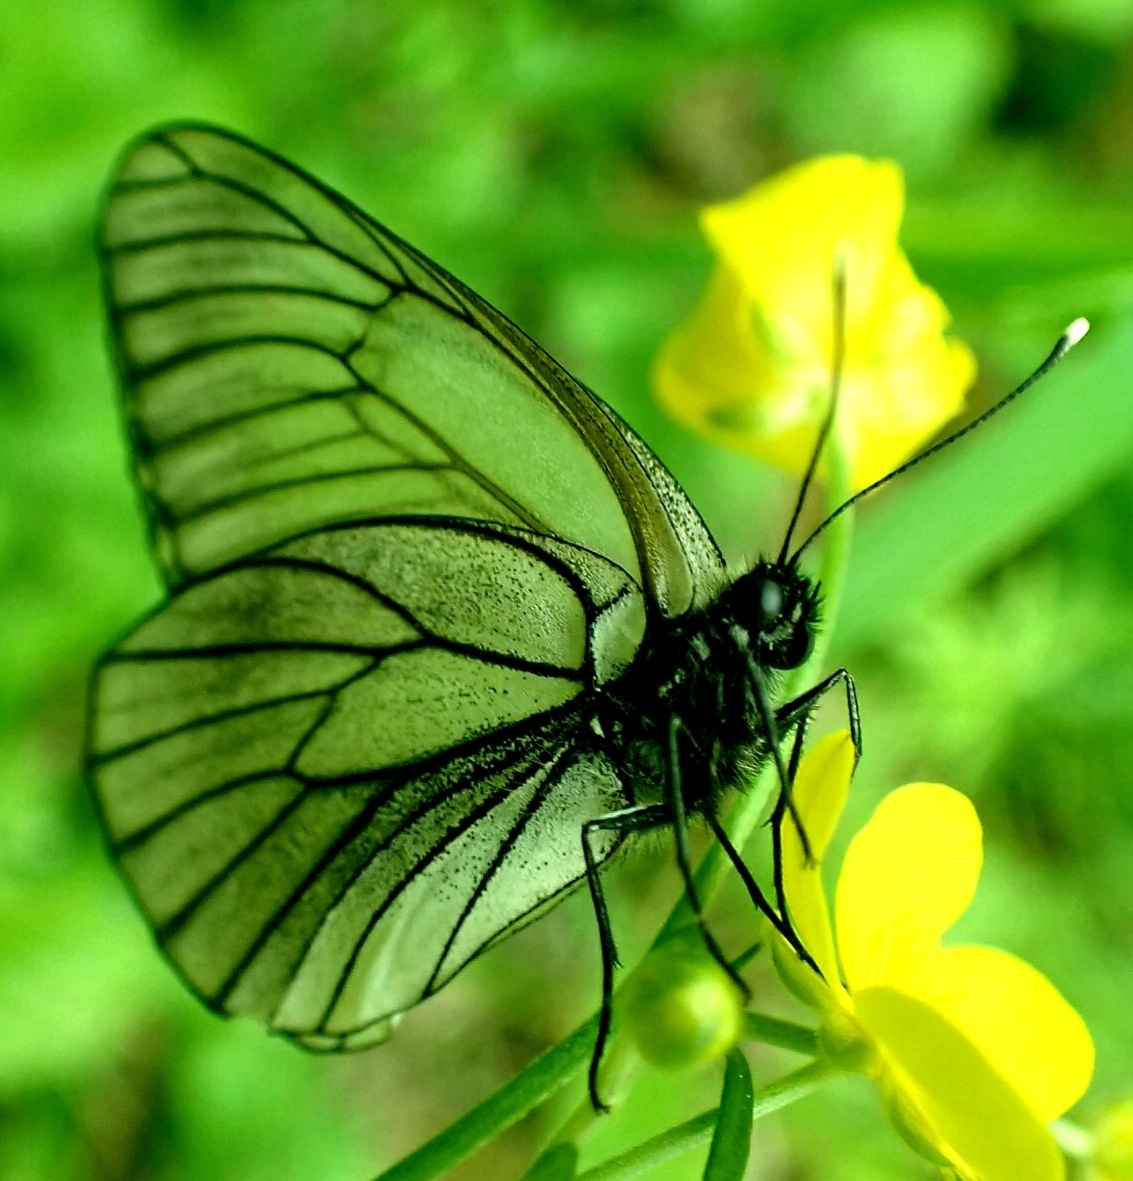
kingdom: Animalia
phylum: Arthropoda
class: Insecta
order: Lepidoptera
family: Pieridae
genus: Aporia
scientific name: Aporia crataegi
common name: Black-veined white
